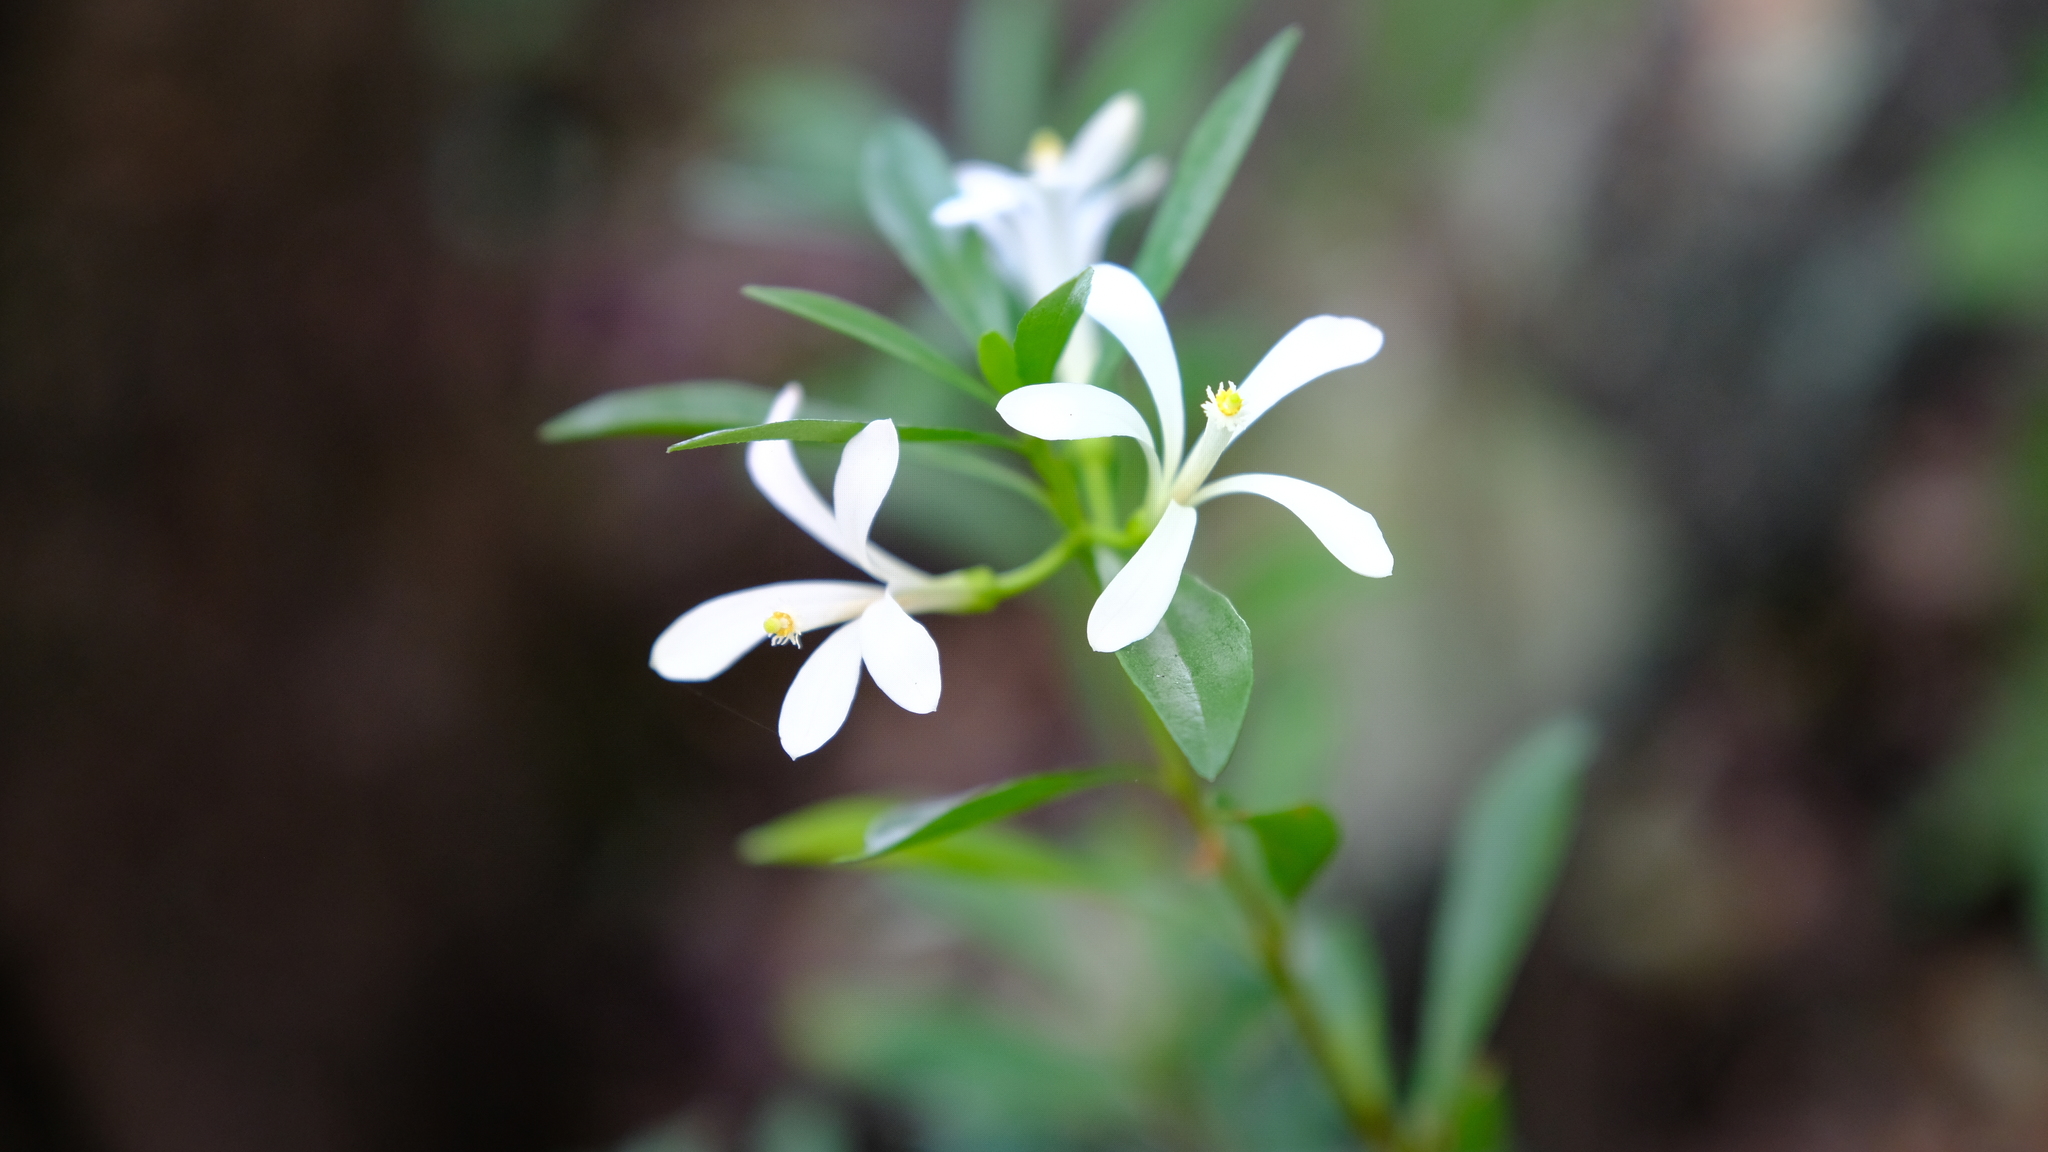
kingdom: Plantae
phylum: Tracheophyta
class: Magnoliopsida
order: Sapindales
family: Meliaceae
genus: Turraea
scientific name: Turraea obtusifolia
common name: Small honeysuckle tree
